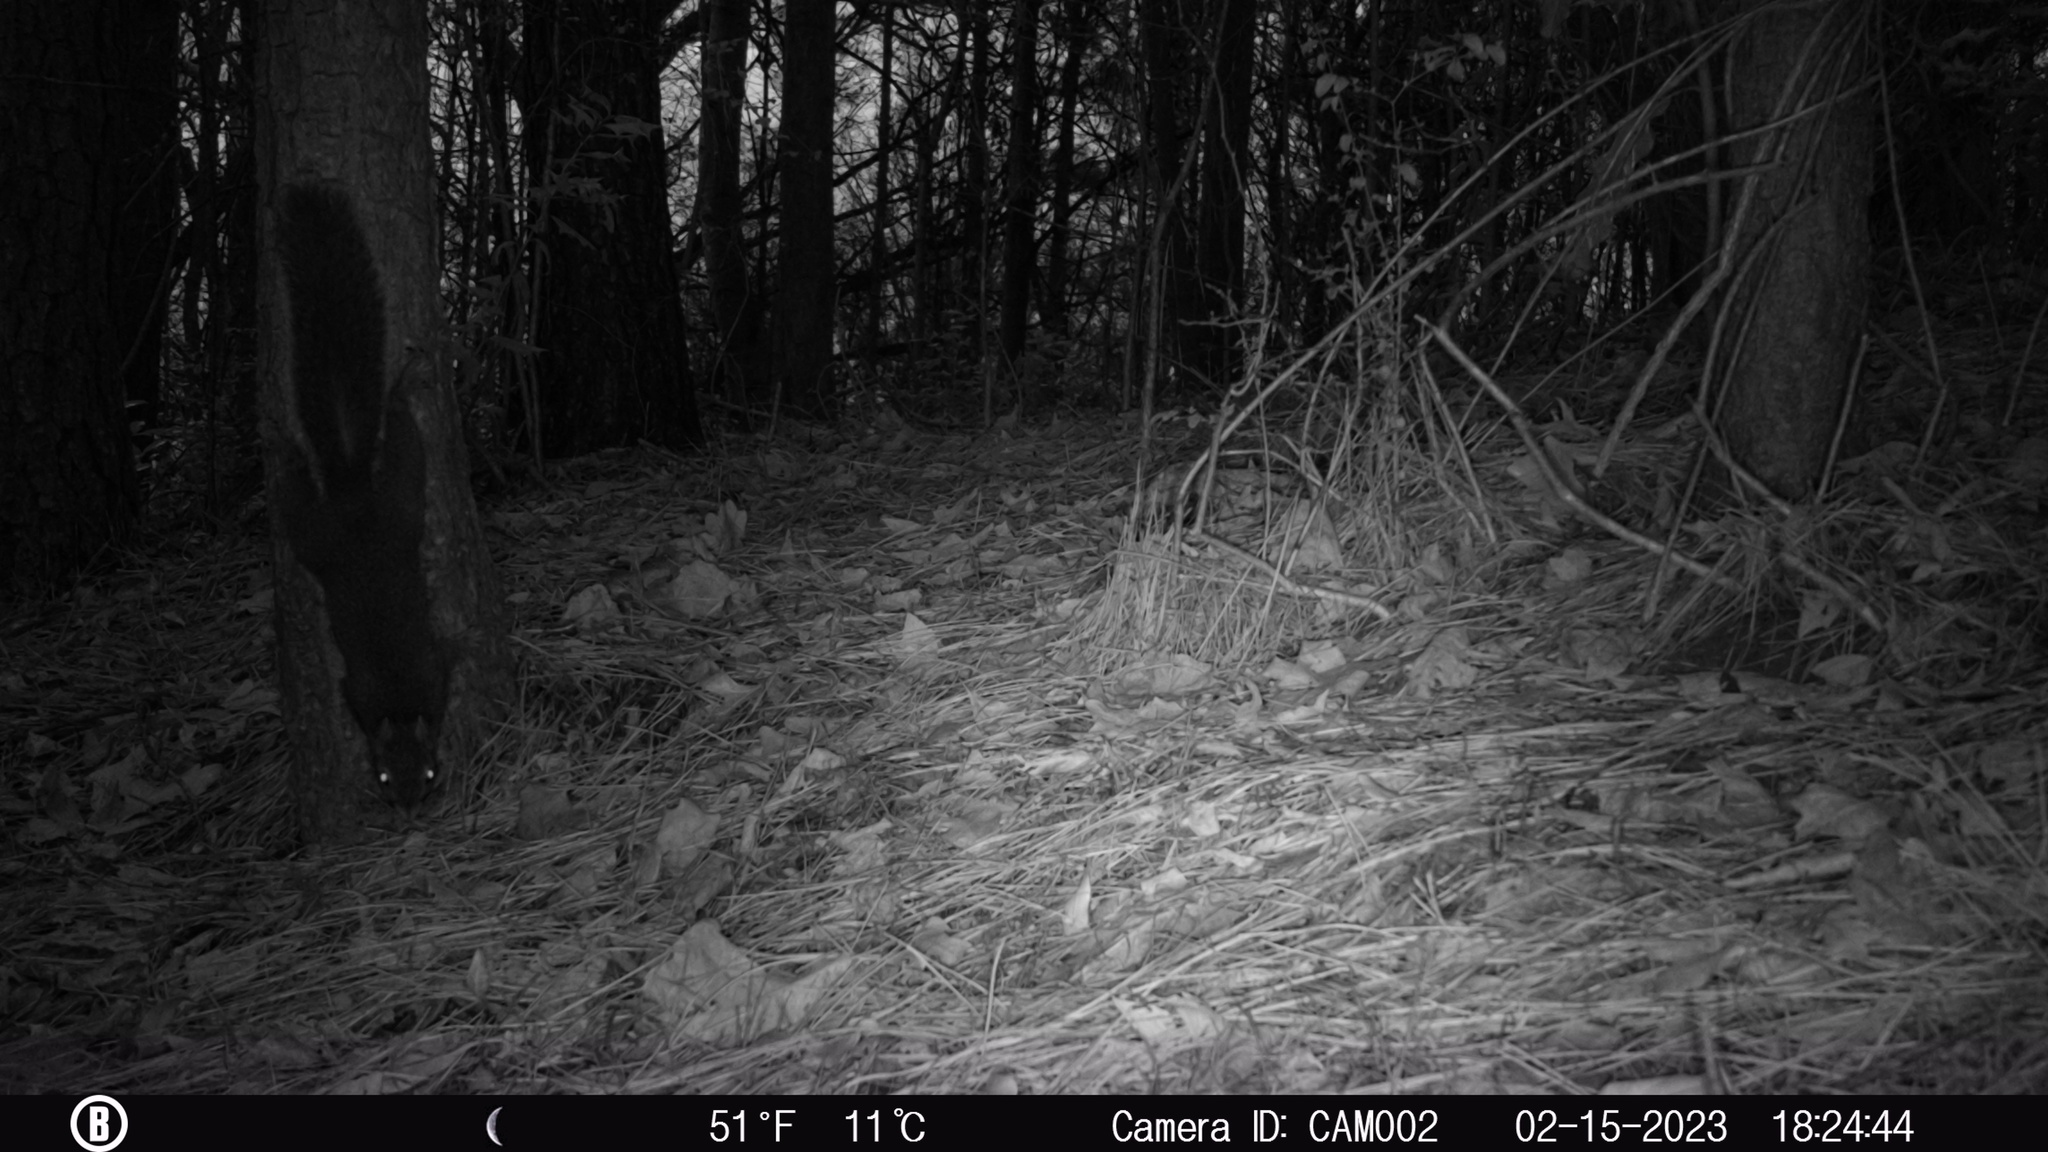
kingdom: Animalia
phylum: Chordata
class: Mammalia
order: Rodentia
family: Sciuridae
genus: Sciurus
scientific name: Sciurus carolinensis
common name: Eastern gray squirrel
